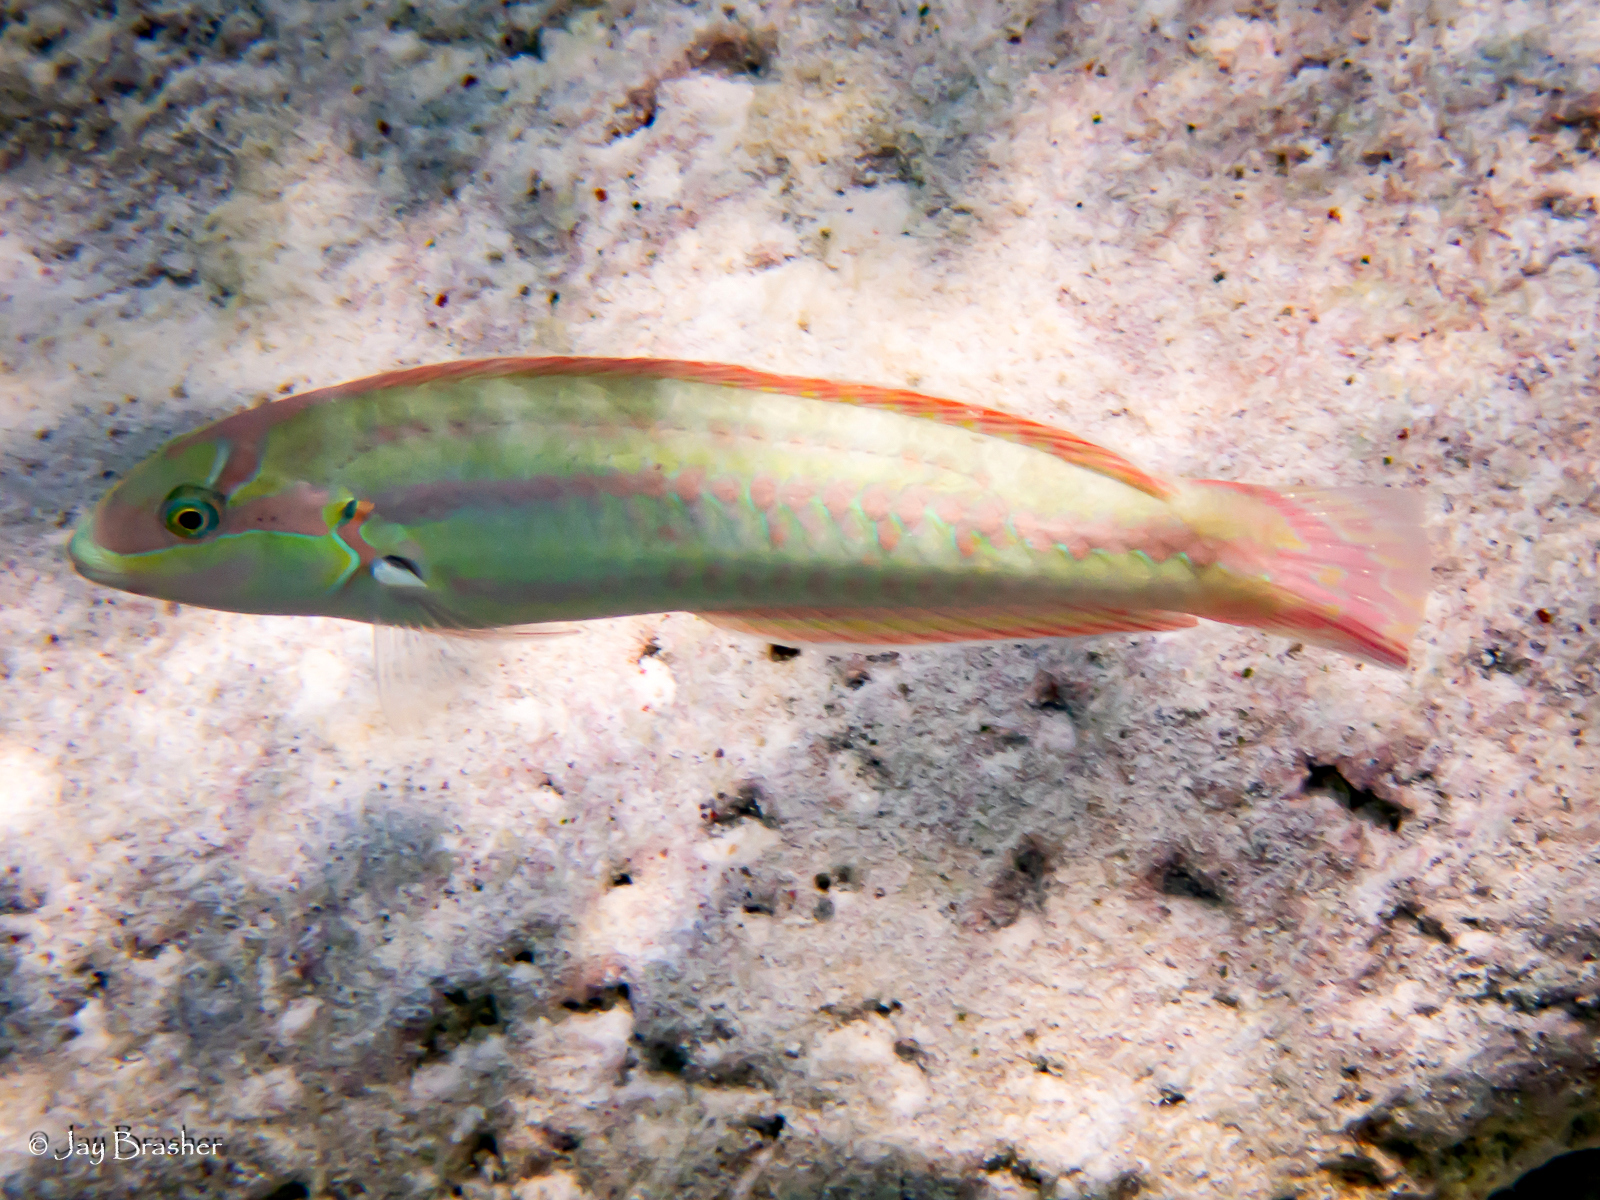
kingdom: Animalia
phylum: Chordata
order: Perciformes
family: Labridae
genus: Halichoeres
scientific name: Halichoeres bivittatus
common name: Slippery dick
